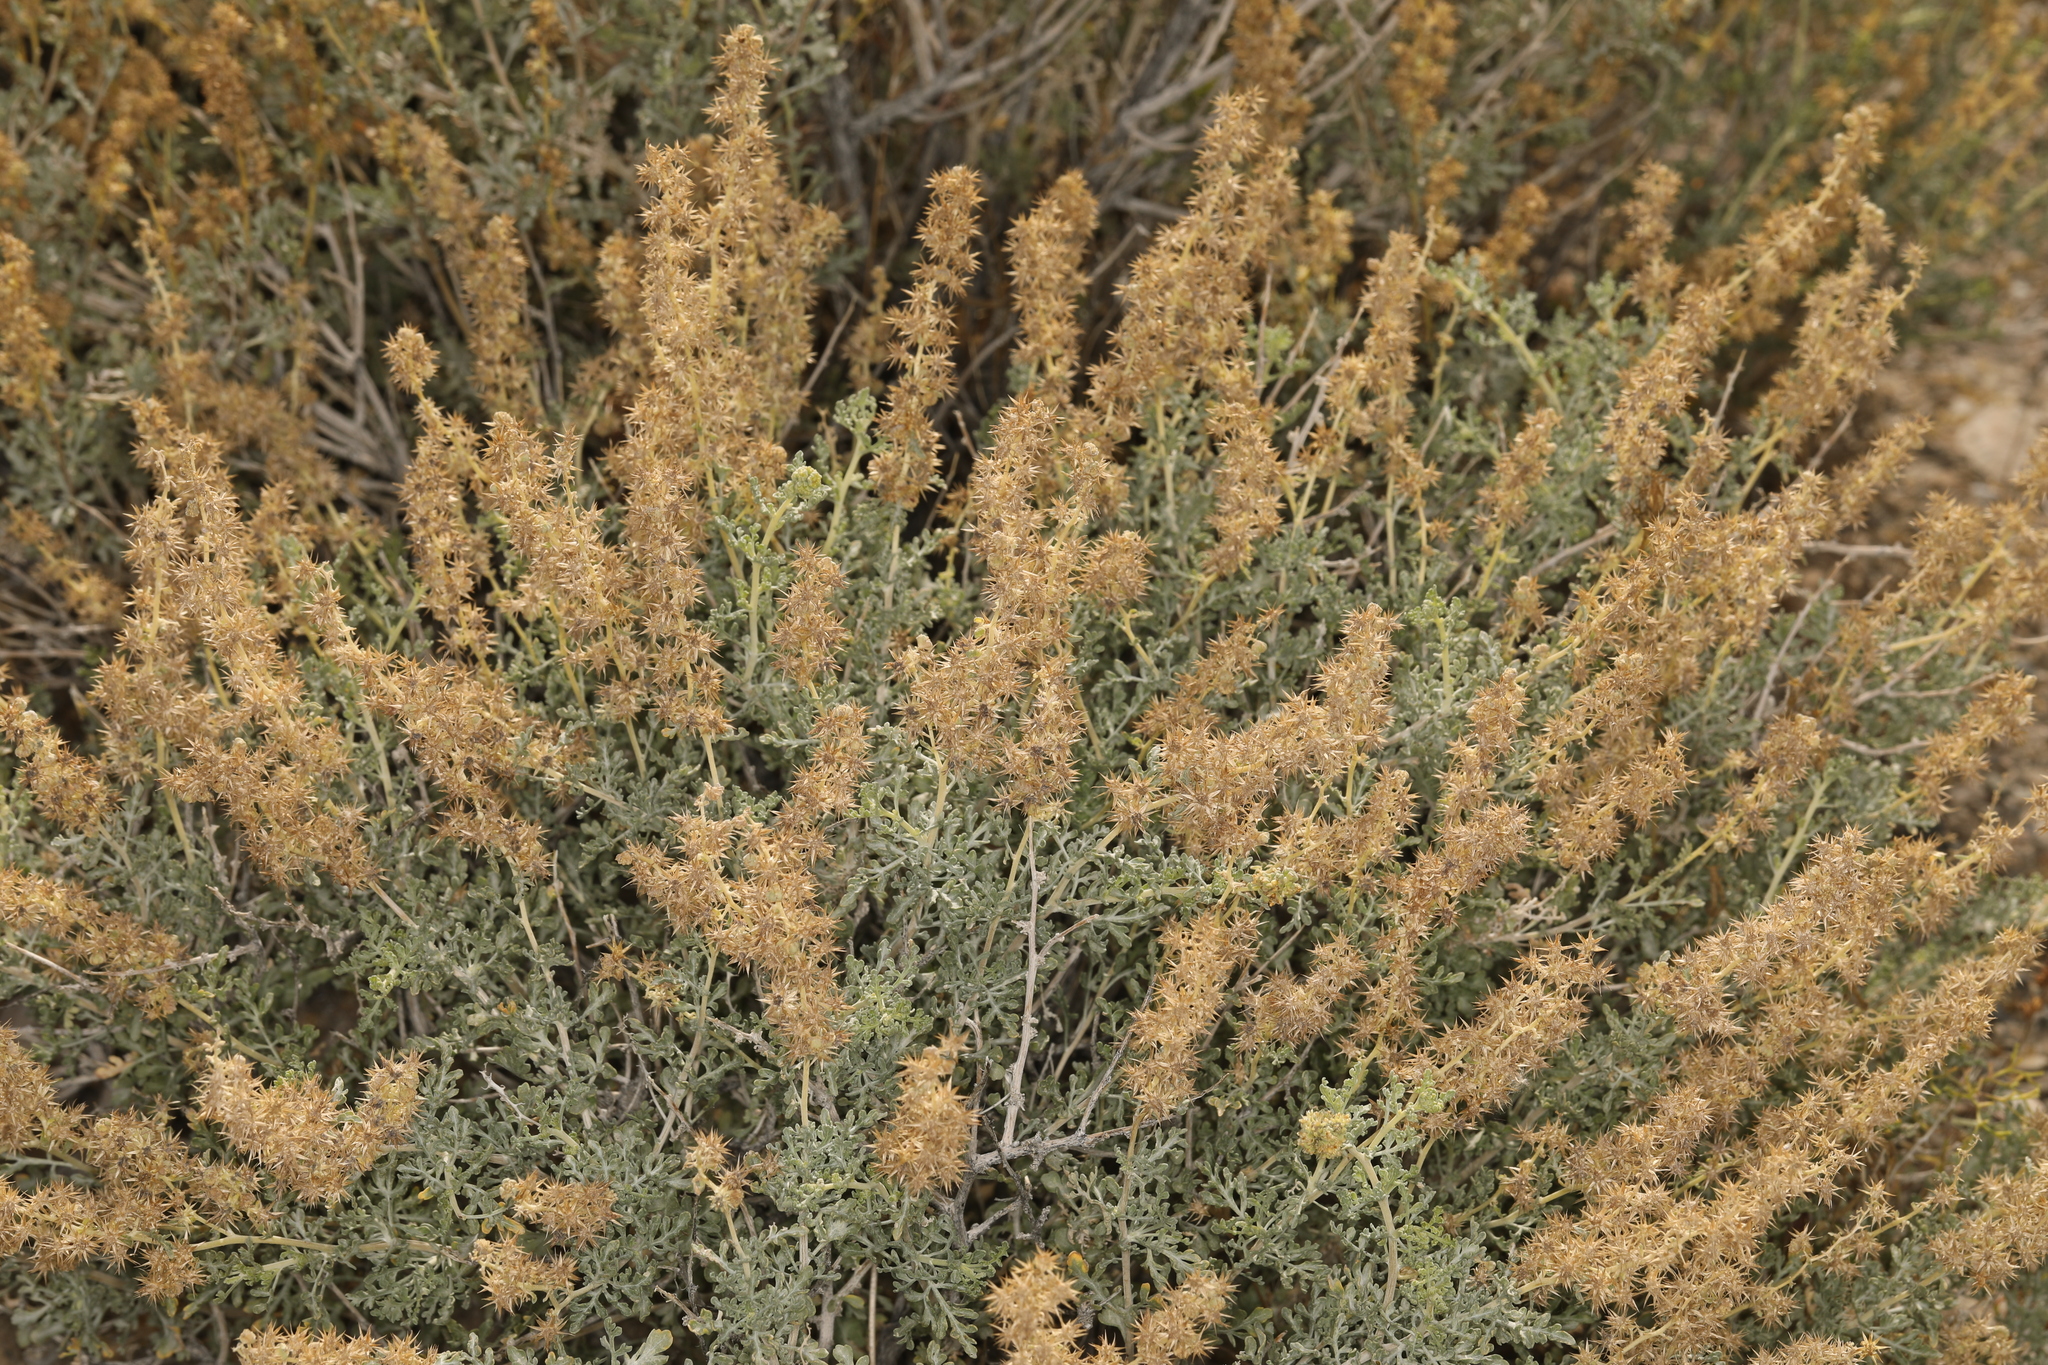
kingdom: Plantae
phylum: Tracheophyta
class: Magnoliopsida
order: Asterales
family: Asteraceae
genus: Ambrosia
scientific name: Ambrosia dumosa
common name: Bur-sage
